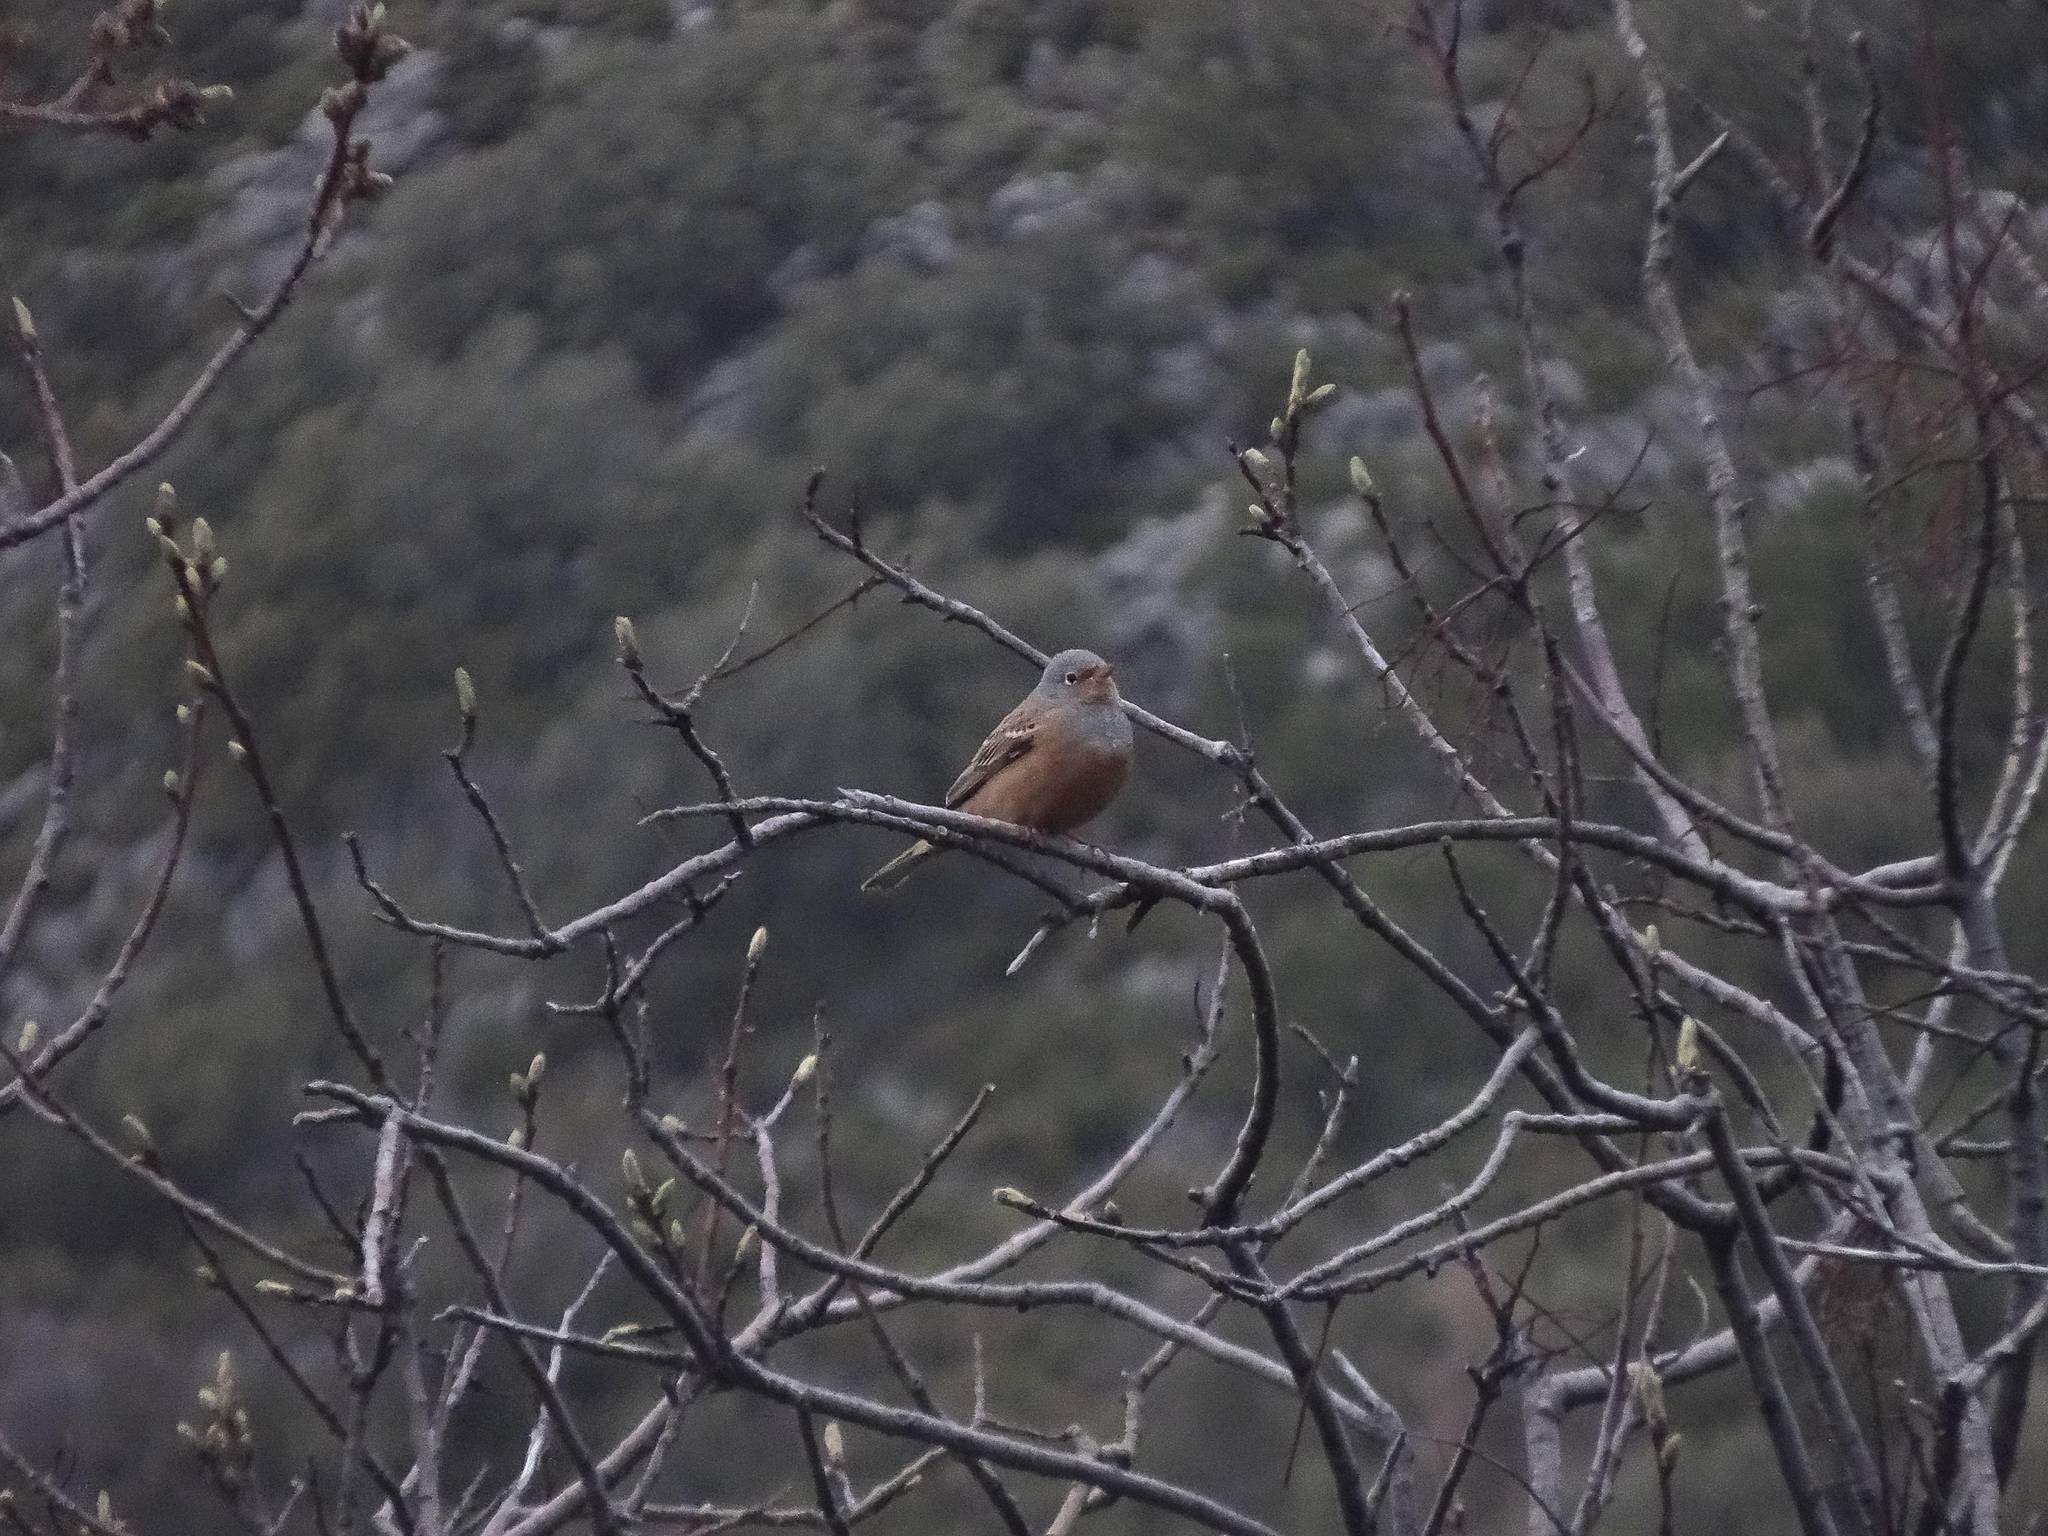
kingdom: Animalia
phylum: Chordata
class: Aves
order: Passeriformes
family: Emberizidae
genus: Emberiza
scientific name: Emberiza caesia
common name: Cretzschmar's bunting
